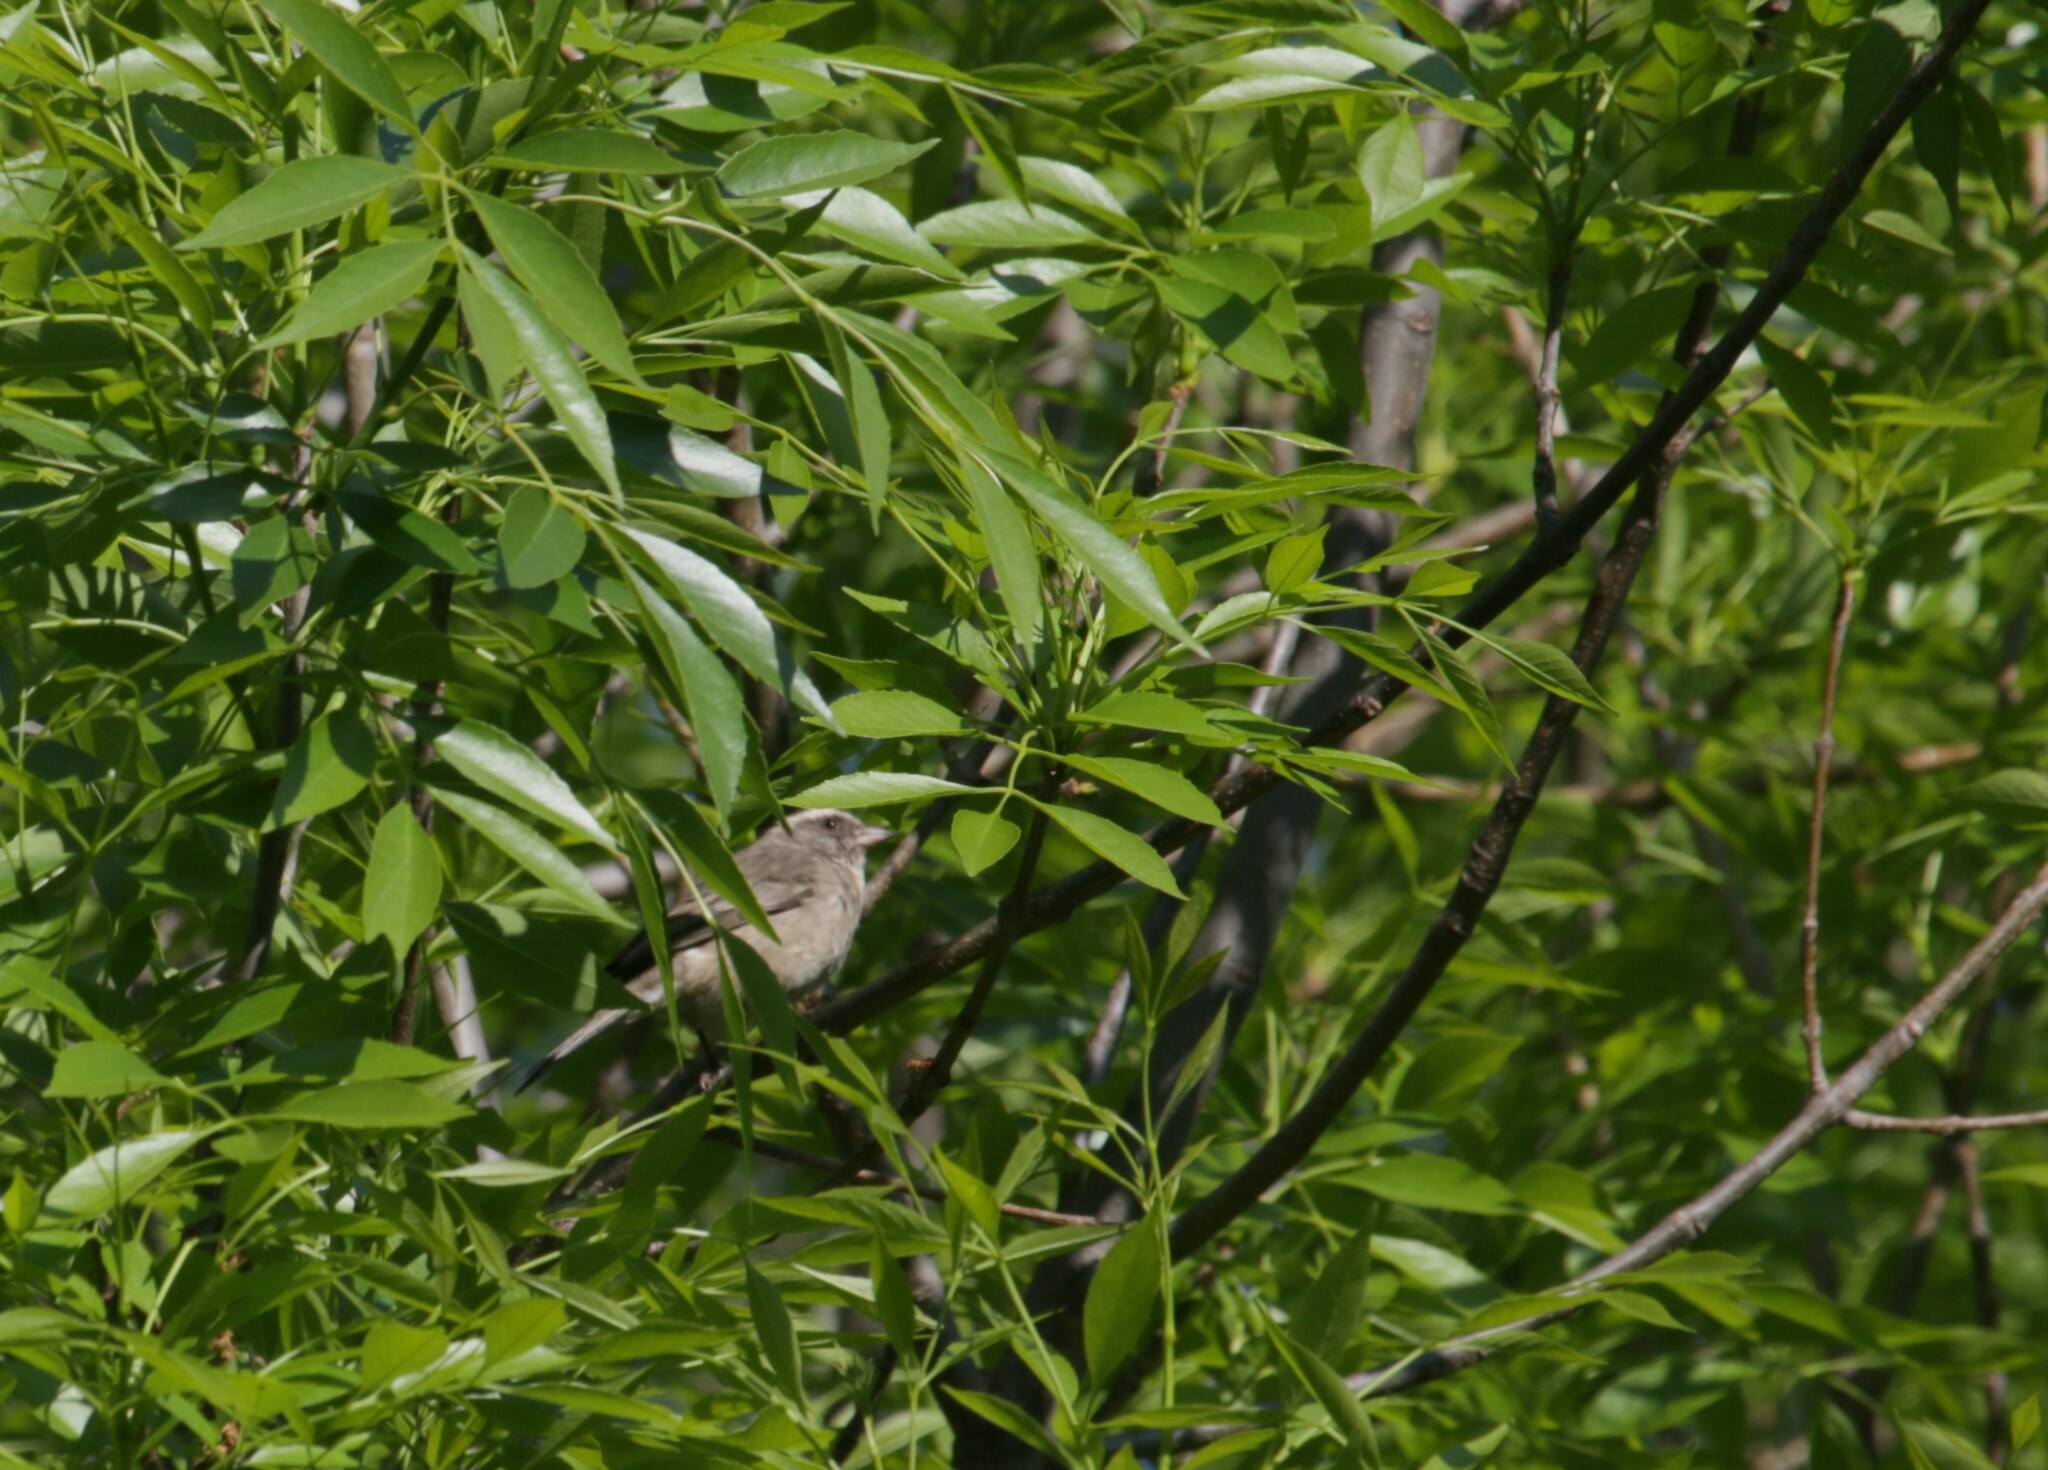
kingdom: Animalia
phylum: Chordata
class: Aves
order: Passeriformes
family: Fringillidae
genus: Crithagra
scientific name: Crithagra gularis
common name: Streaky-headed seedeater
